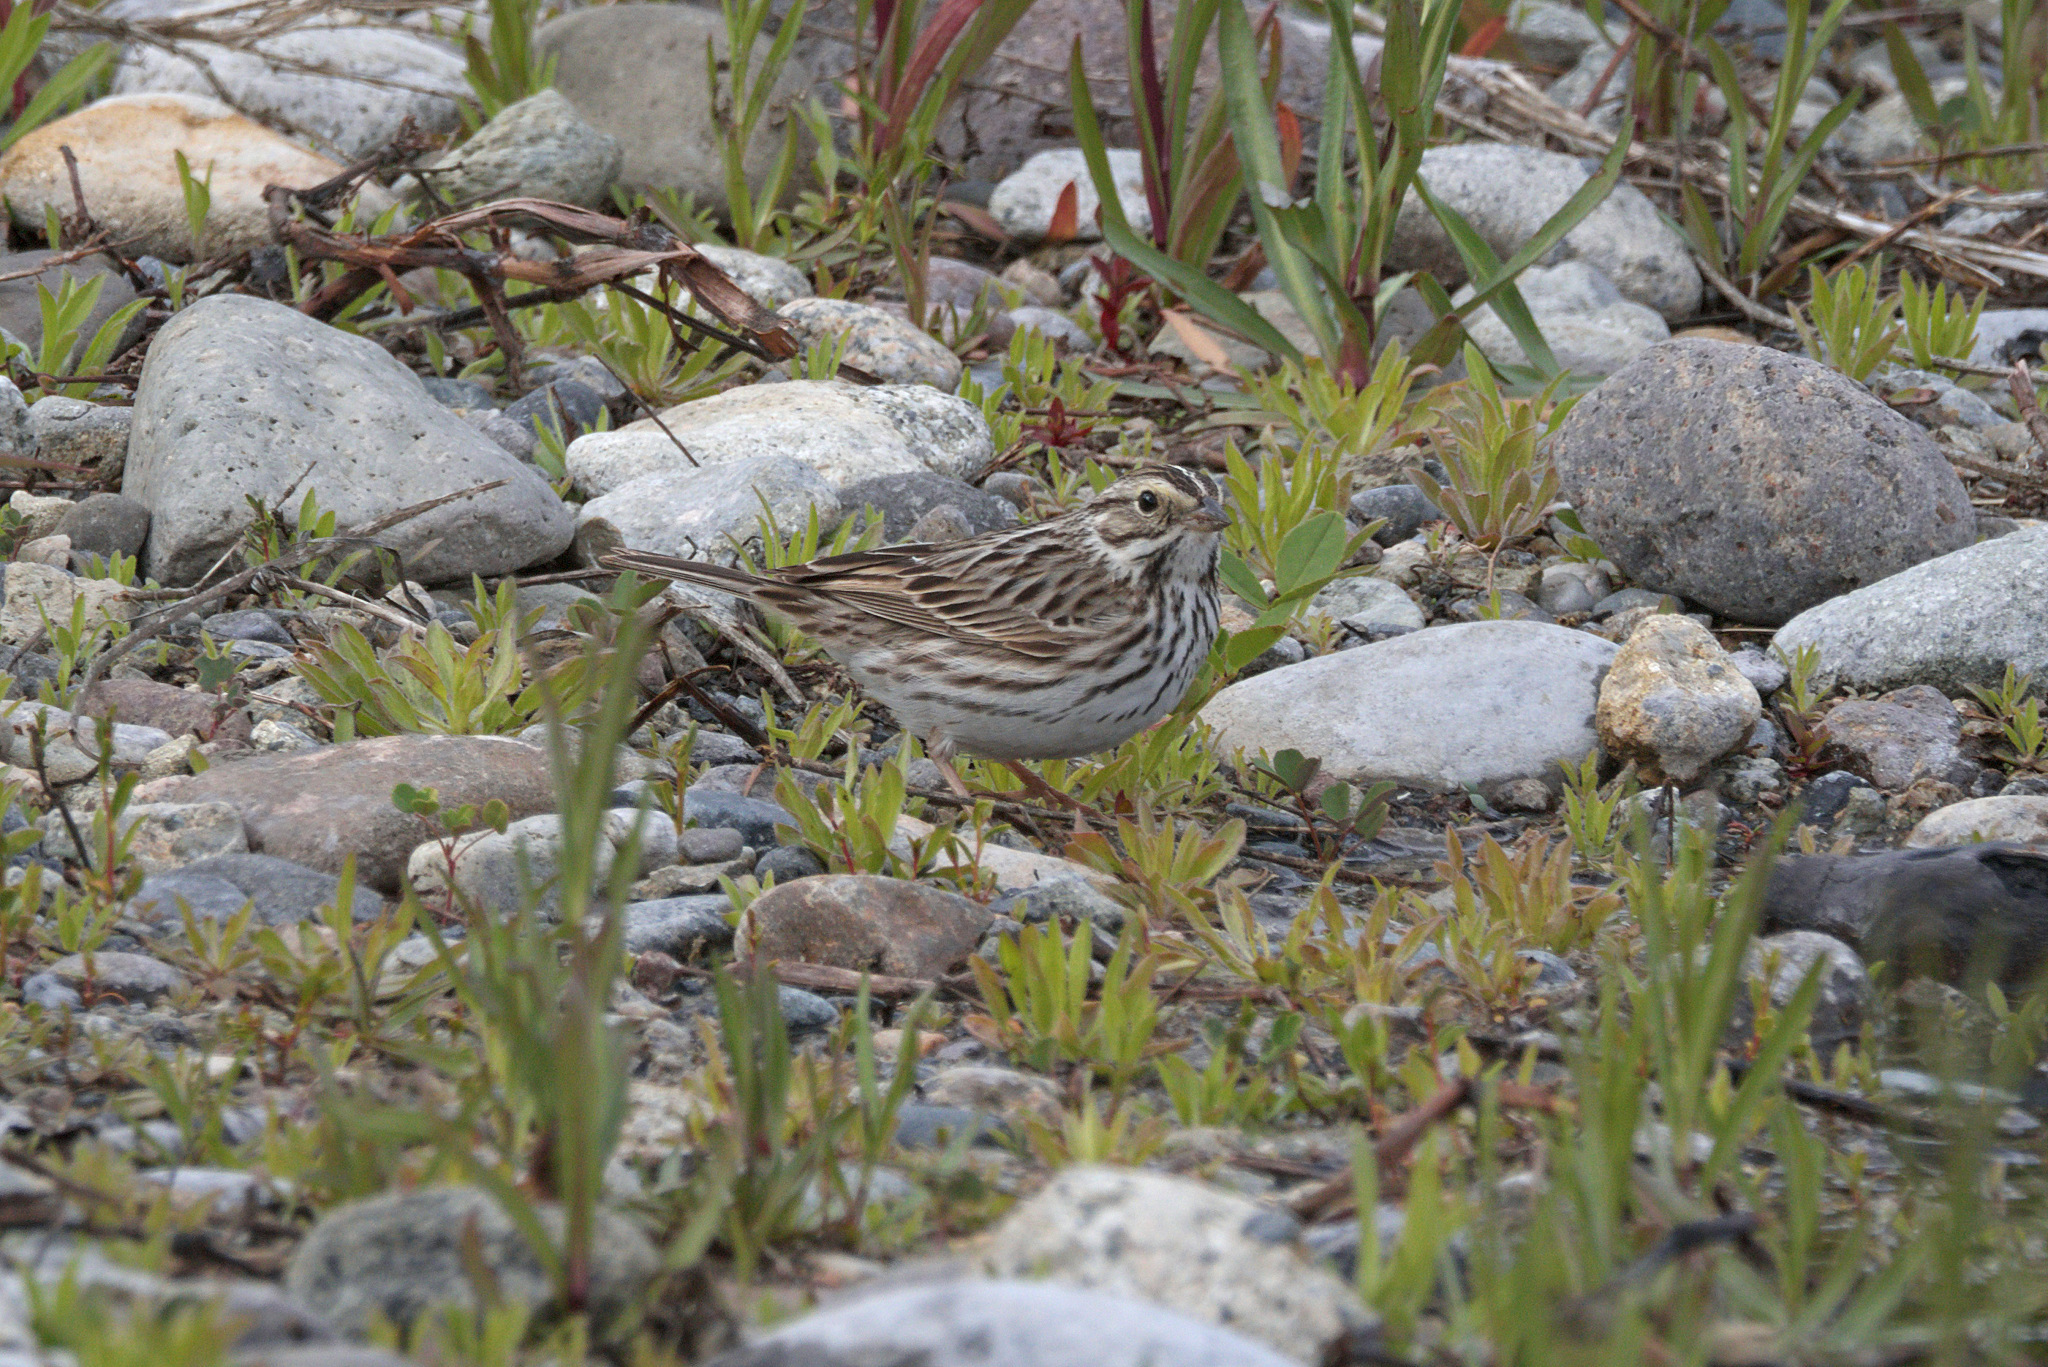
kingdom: Animalia
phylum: Chordata
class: Aves
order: Passeriformes
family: Passerellidae
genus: Passerculus
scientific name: Passerculus sandwichensis
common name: Savannah sparrow
